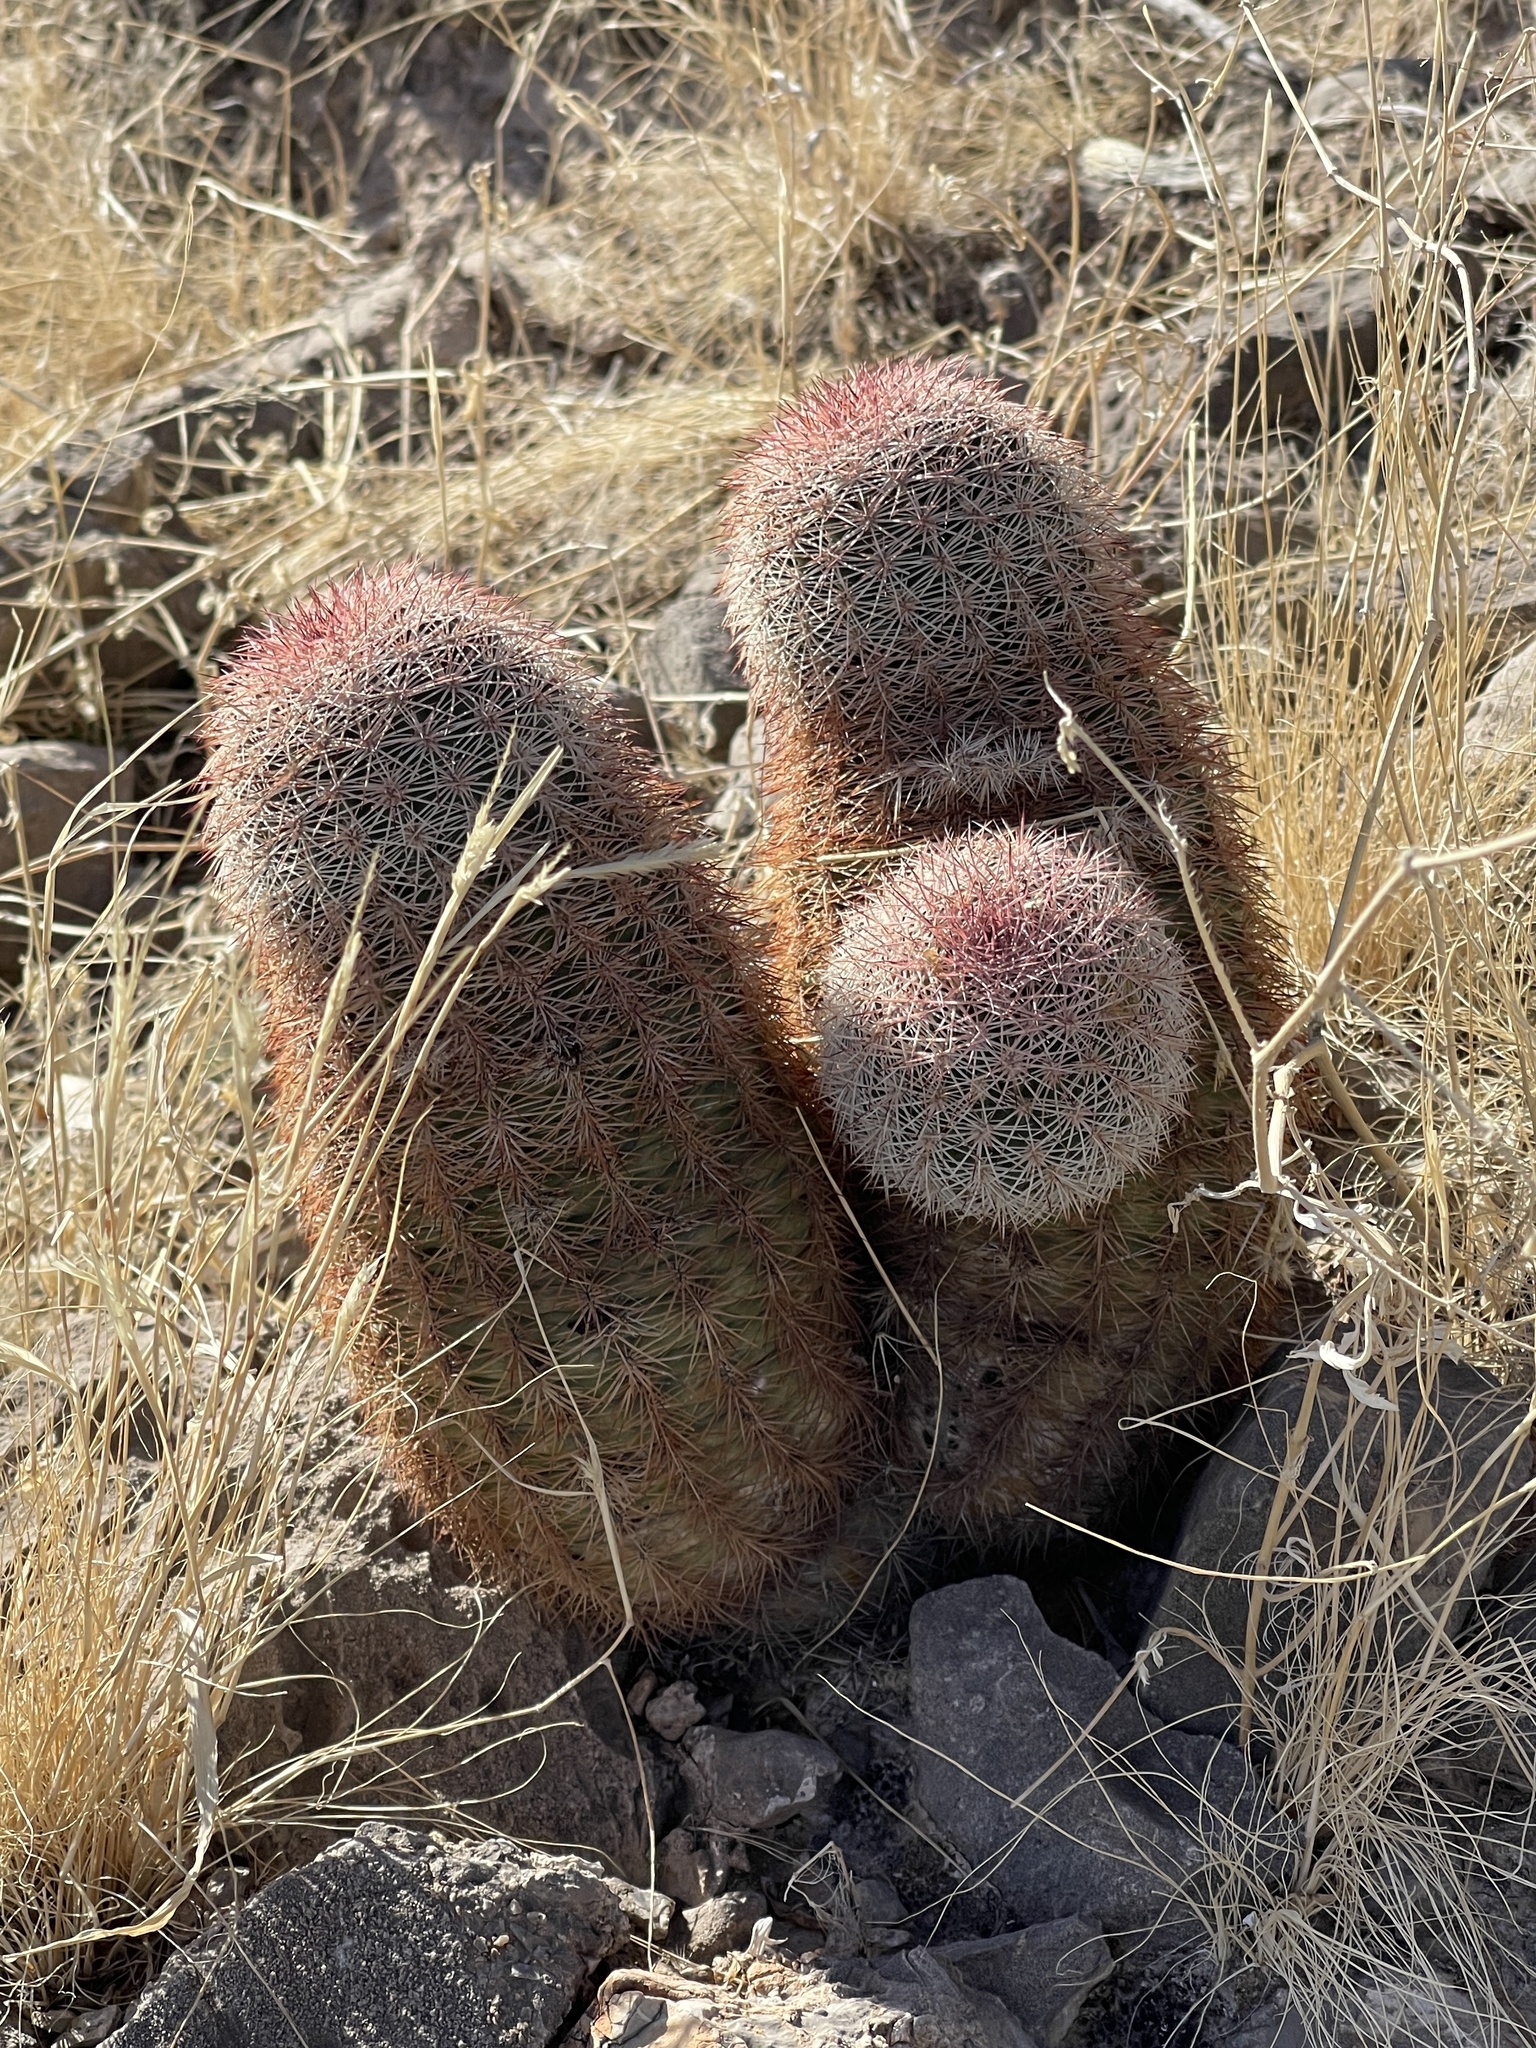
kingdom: Plantae
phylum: Tracheophyta
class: Magnoliopsida
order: Caryophyllales
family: Cactaceae
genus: Echinocereus
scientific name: Echinocereus dasyacanthus
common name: Spiny hedgehog cactus
